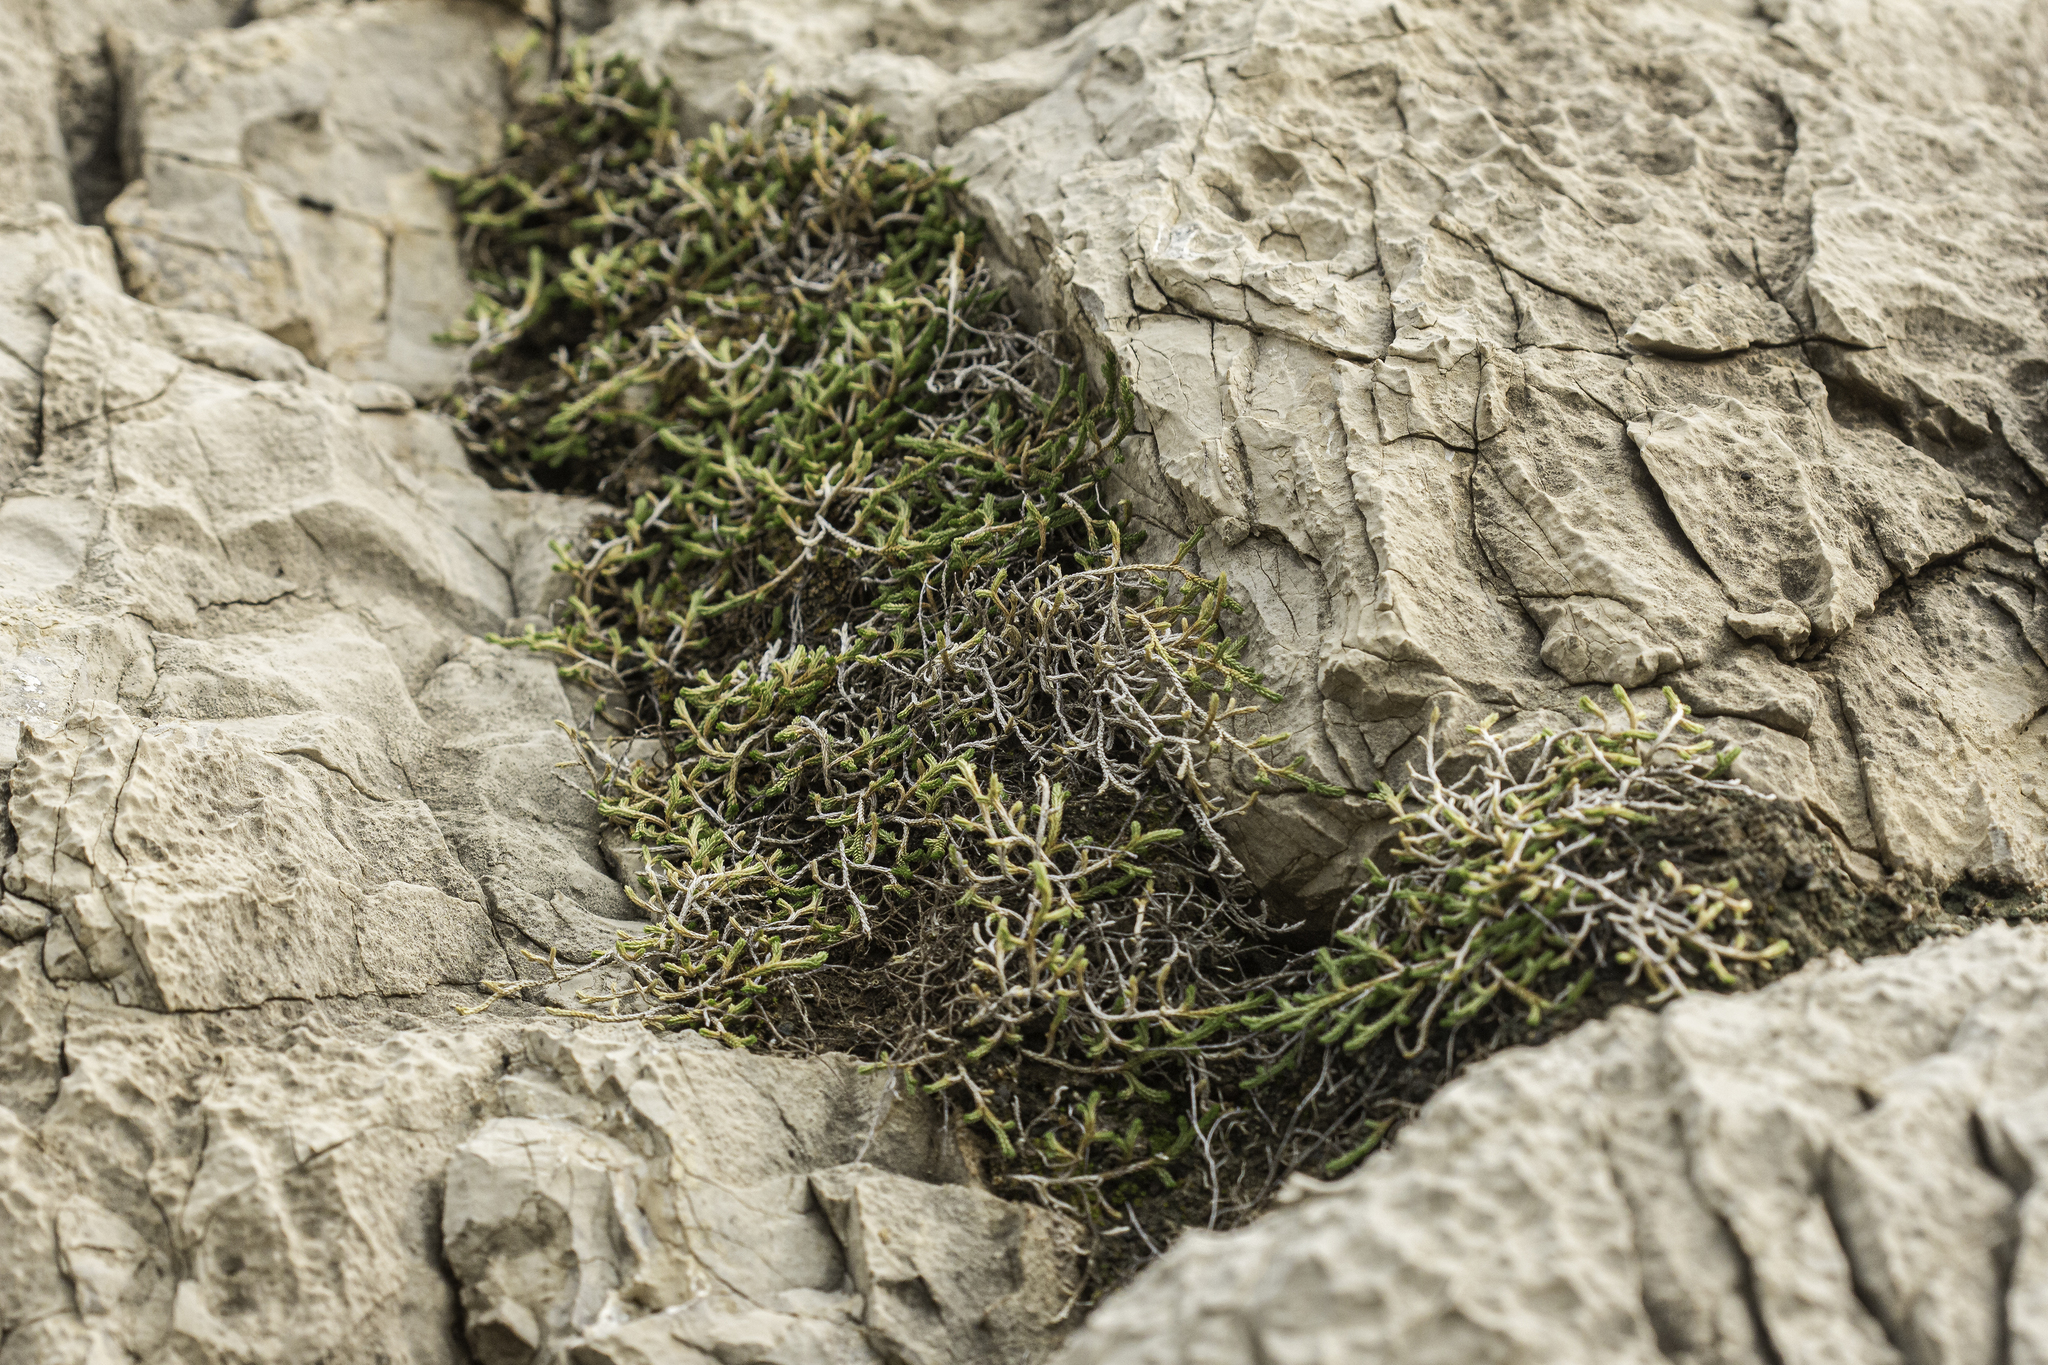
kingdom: Plantae
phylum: Tracheophyta
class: Lycopodiopsida
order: Selaginellales
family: Selaginellaceae
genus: Selaginella
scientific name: Selaginella mutica
